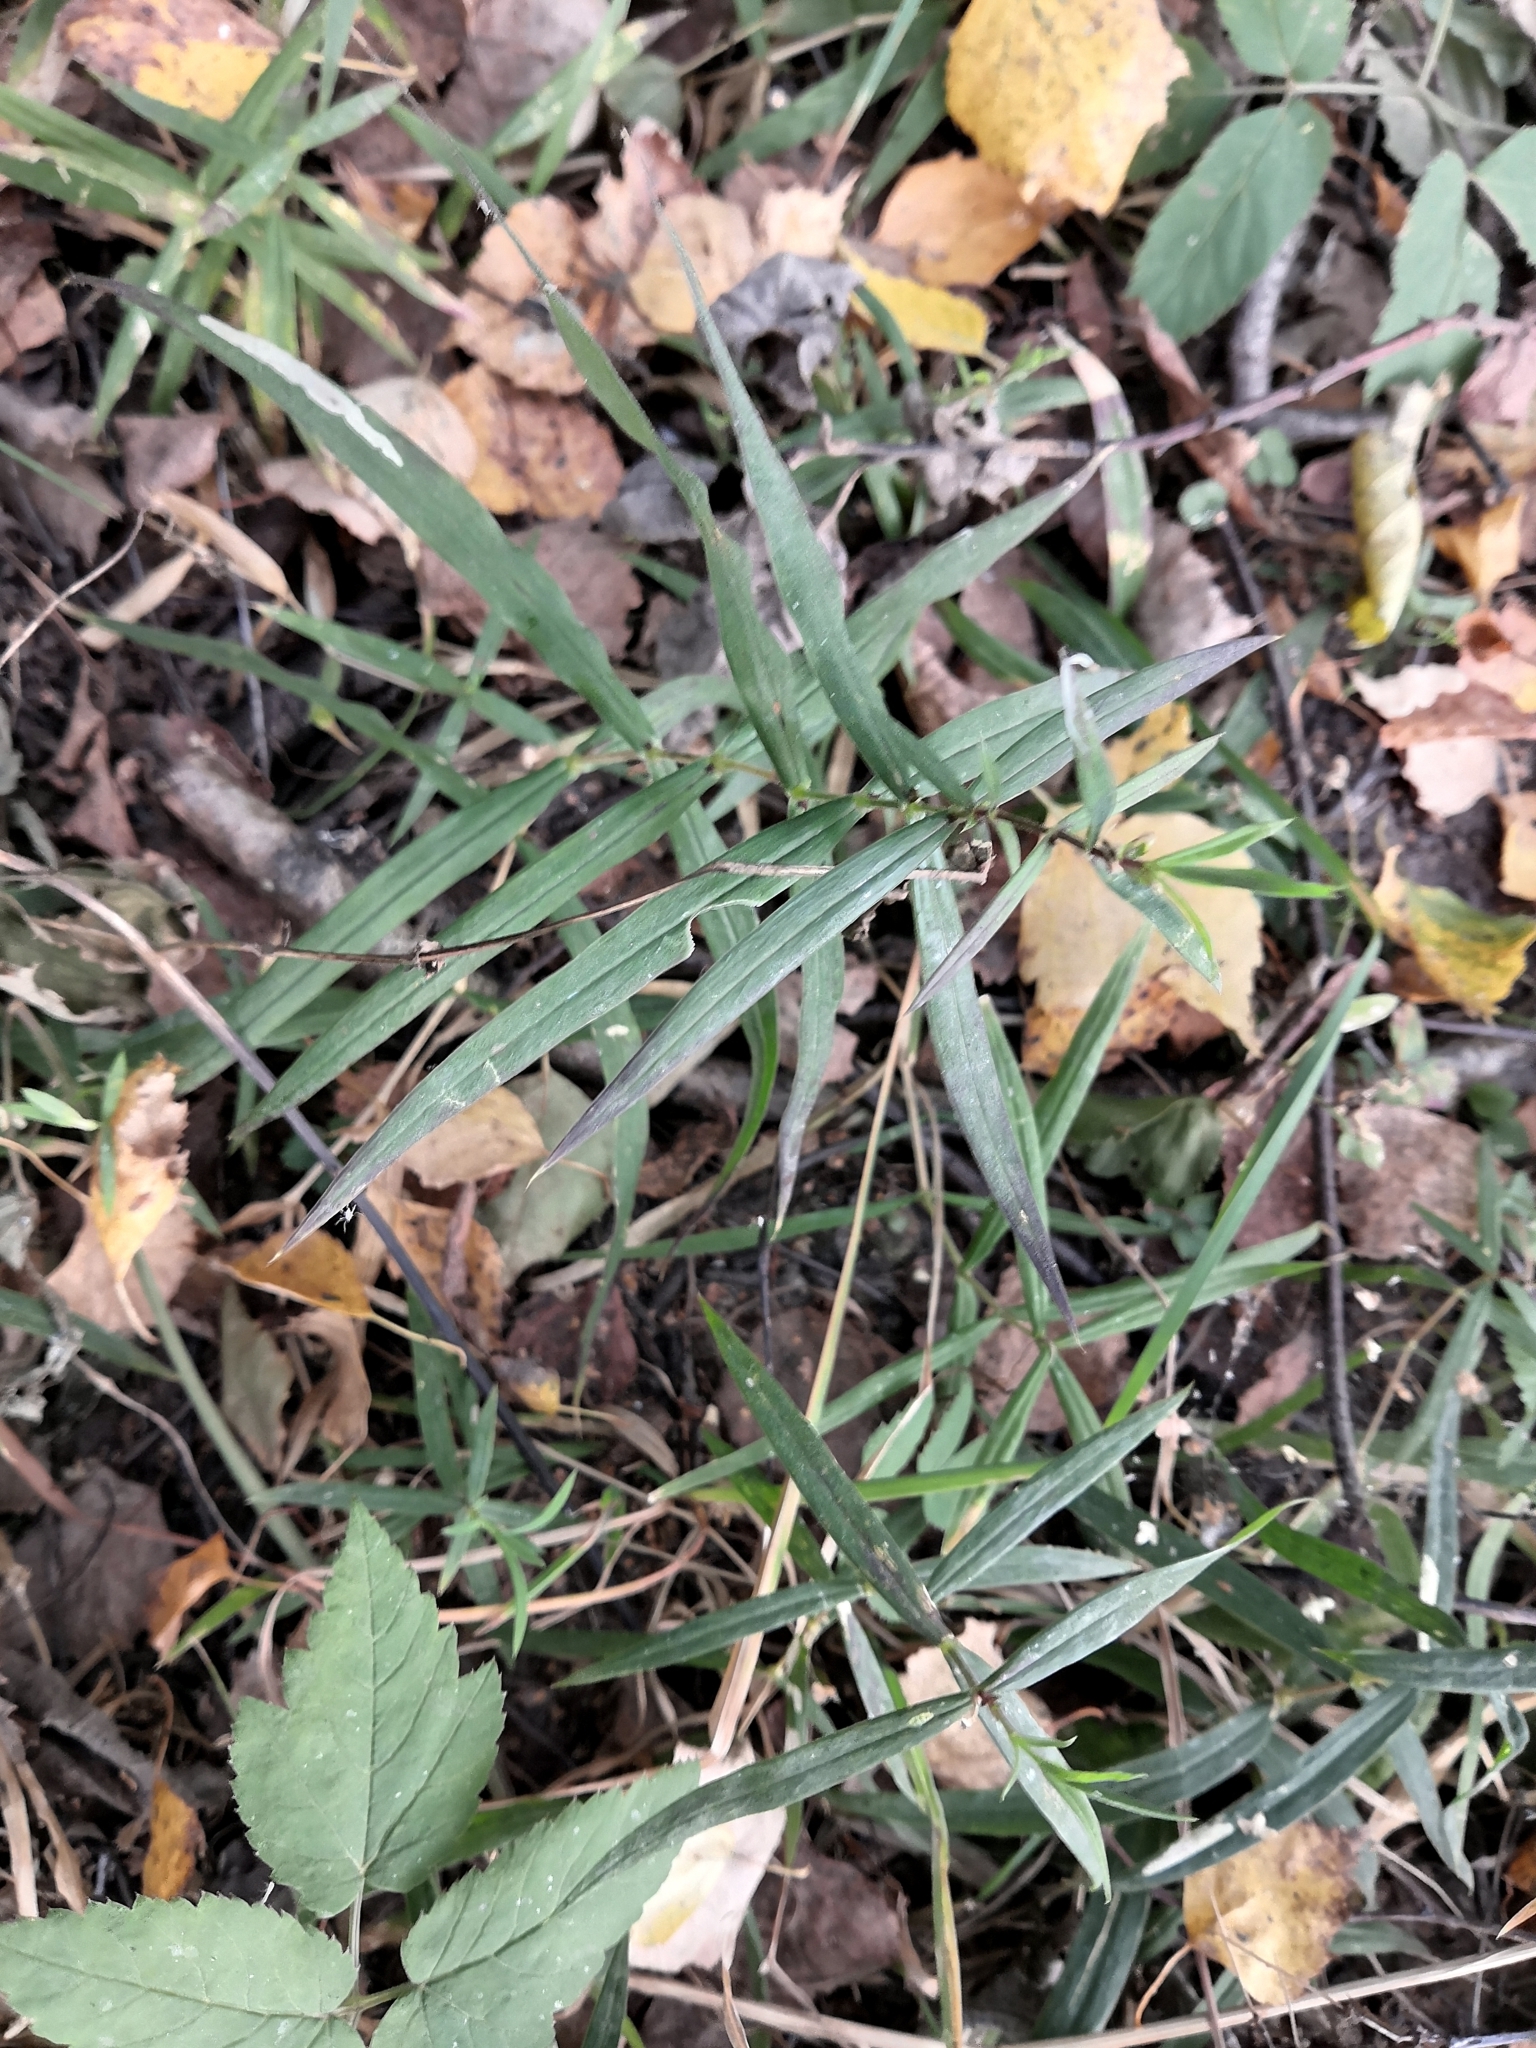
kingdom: Plantae
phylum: Tracheophyta
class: Magnoliopsida
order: Caryophyllales
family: Caryophyllaceae
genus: Rabelera
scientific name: Rabelera holostea
